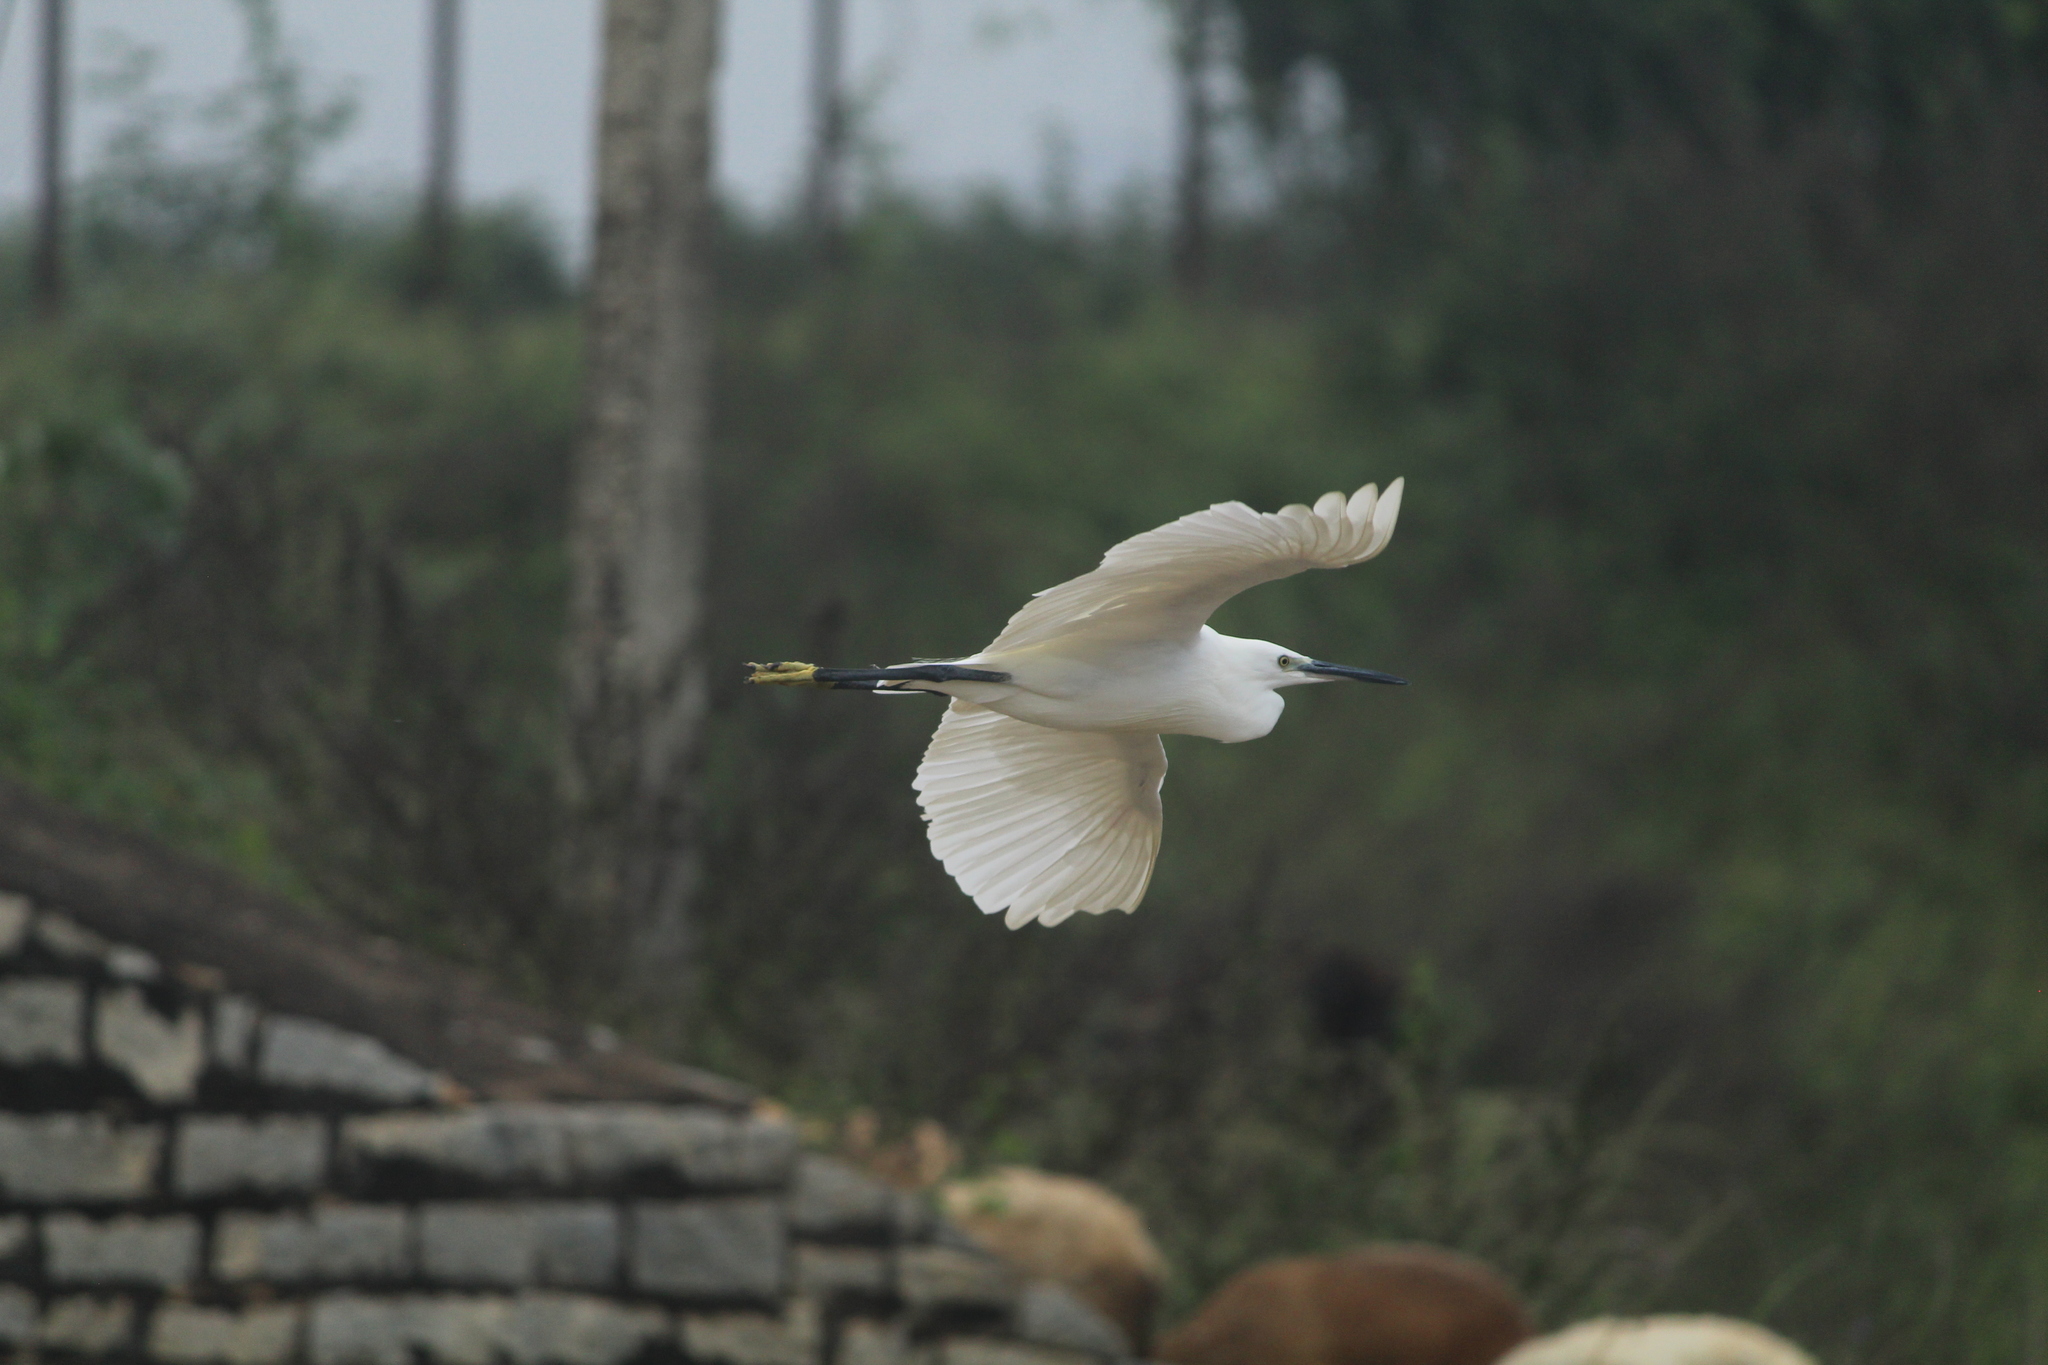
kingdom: Animalia
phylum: Chordata
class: Aves
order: Pelecaniformes
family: Ardeidae
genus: Egretta
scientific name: Egretta garzetta
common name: Little egret
